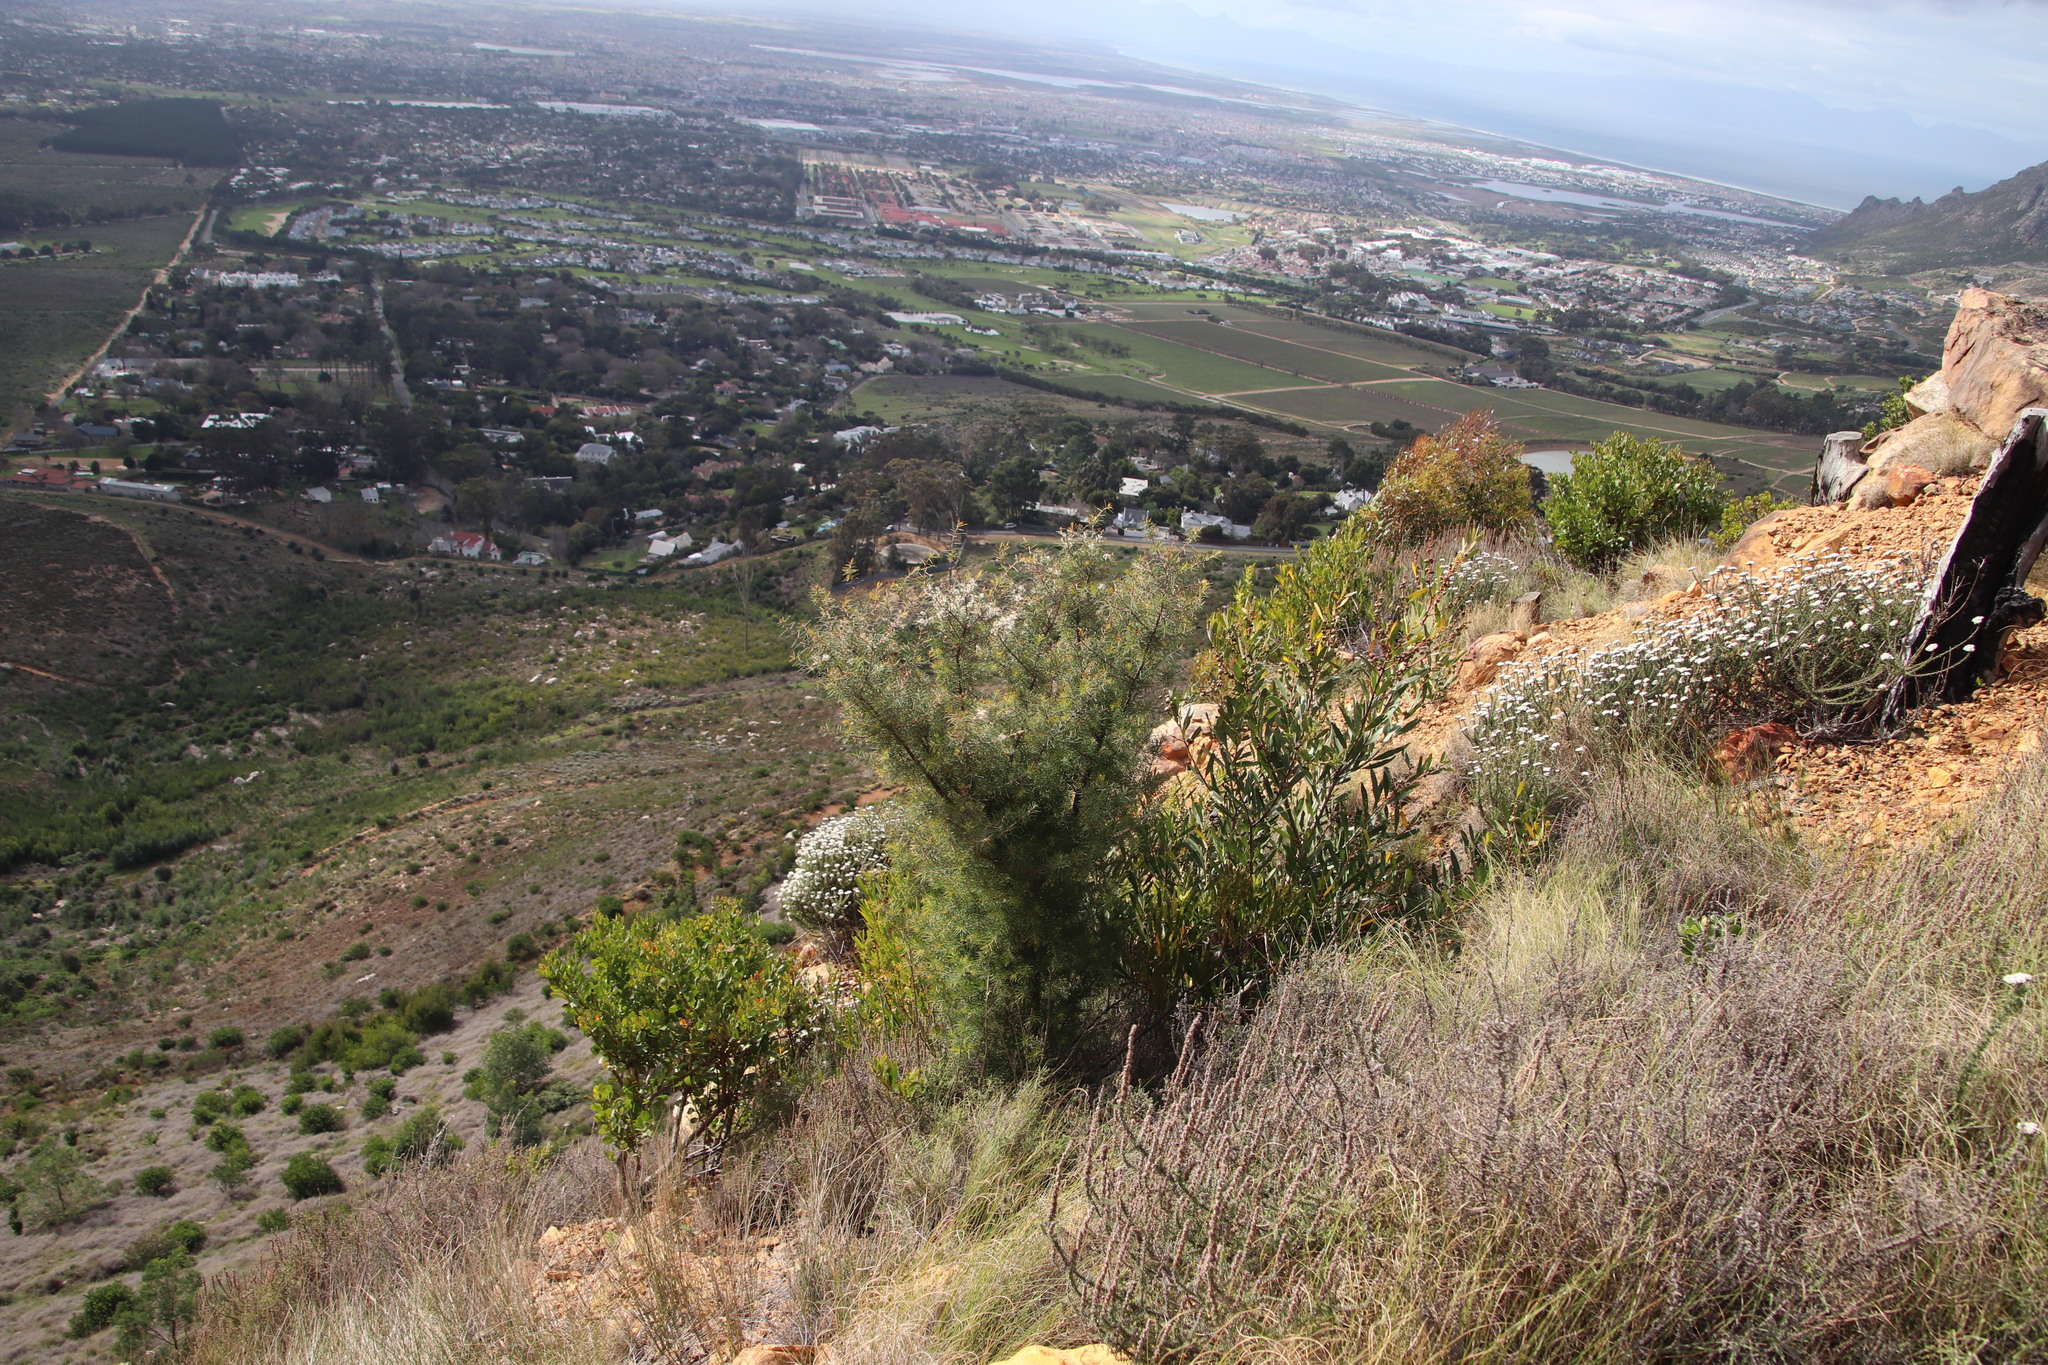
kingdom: Plantae
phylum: Tracheophyta
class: Magnoliopsida
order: Proteales
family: Proteaceae
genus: Hakea
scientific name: Hakea sericea
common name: Needle bush
